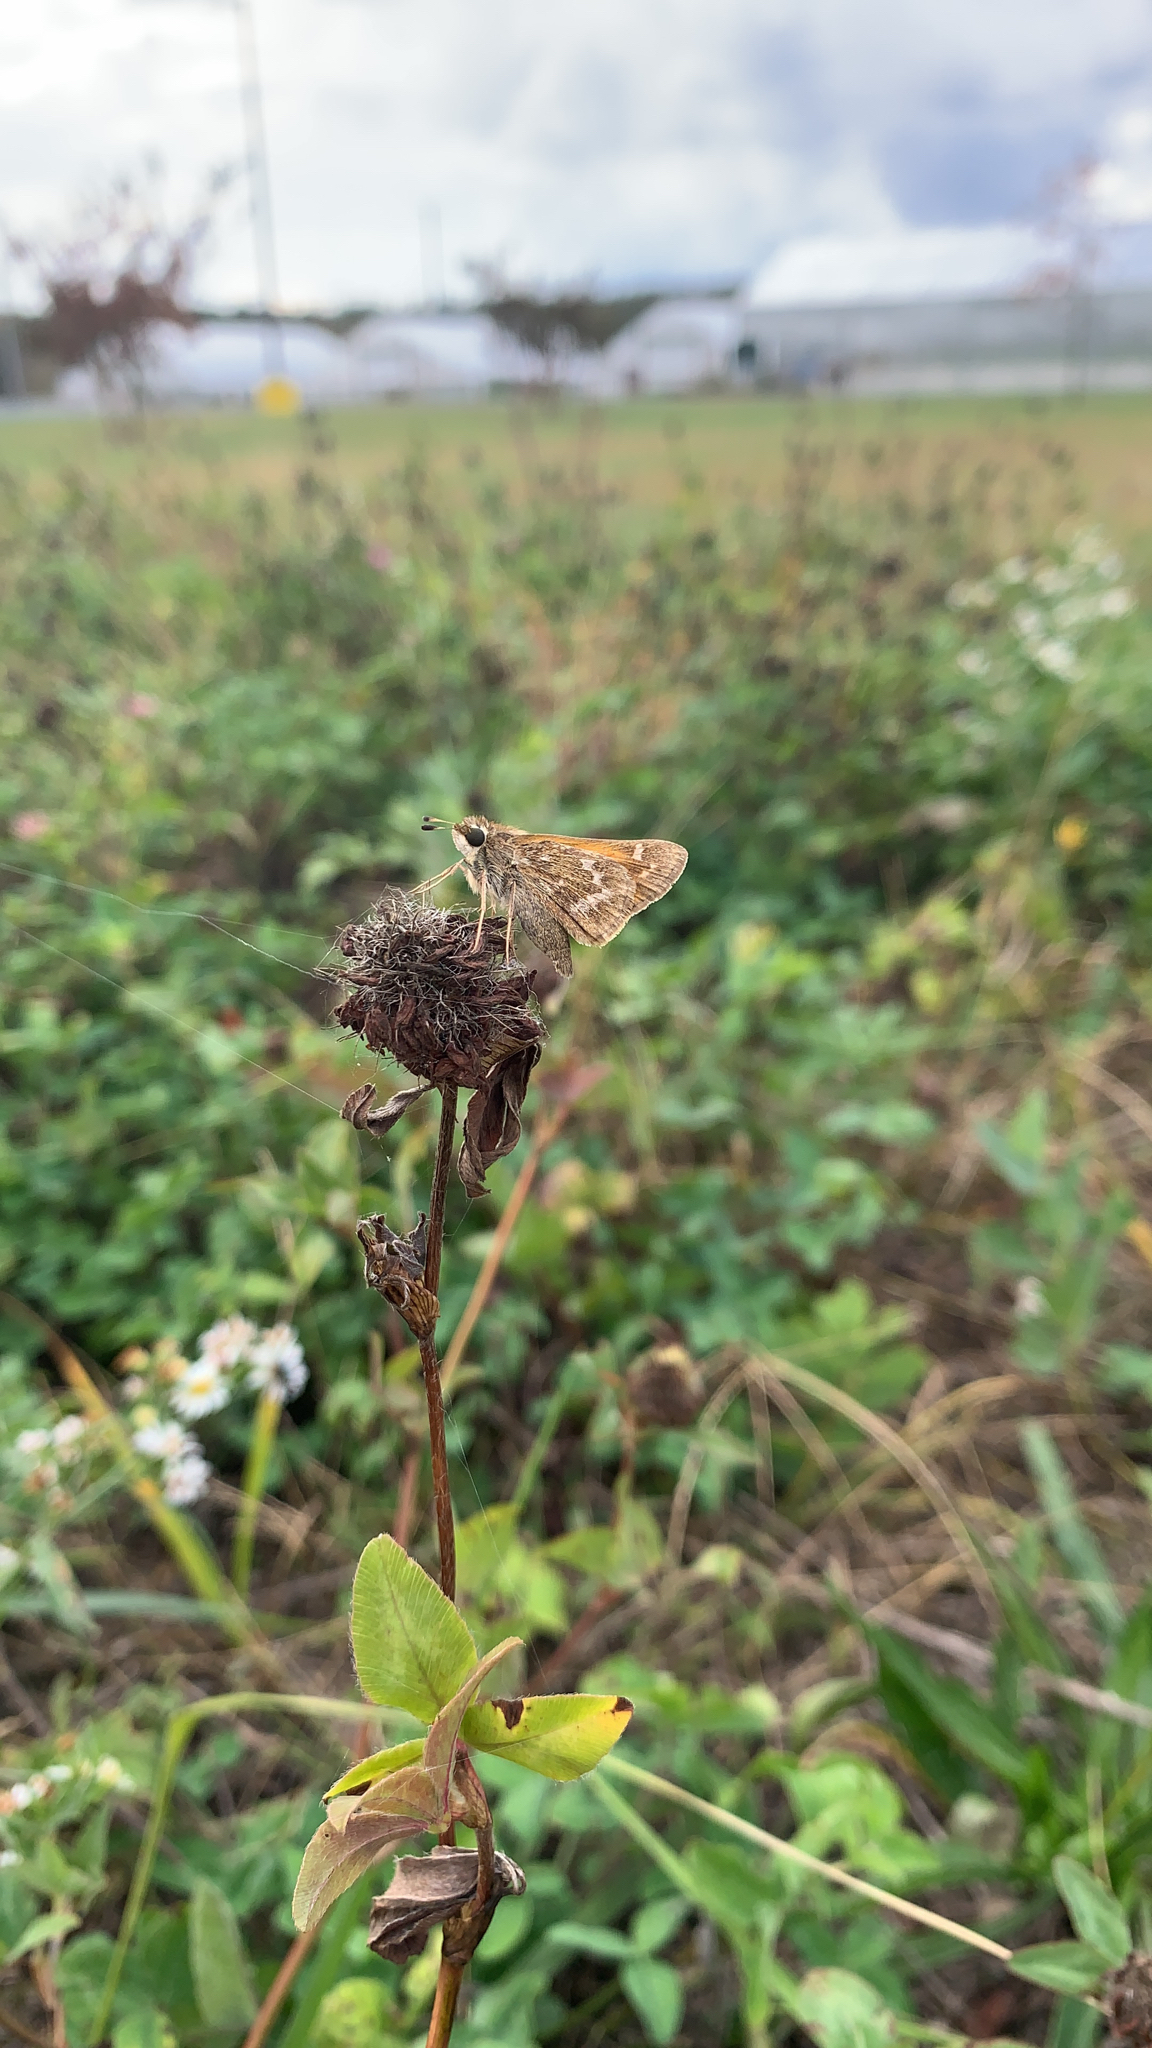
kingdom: Animalia
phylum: Arthropoda
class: Insecta
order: Lepidoptera
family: Hesperiidae
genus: Atalopedes
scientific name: Atalopedes
